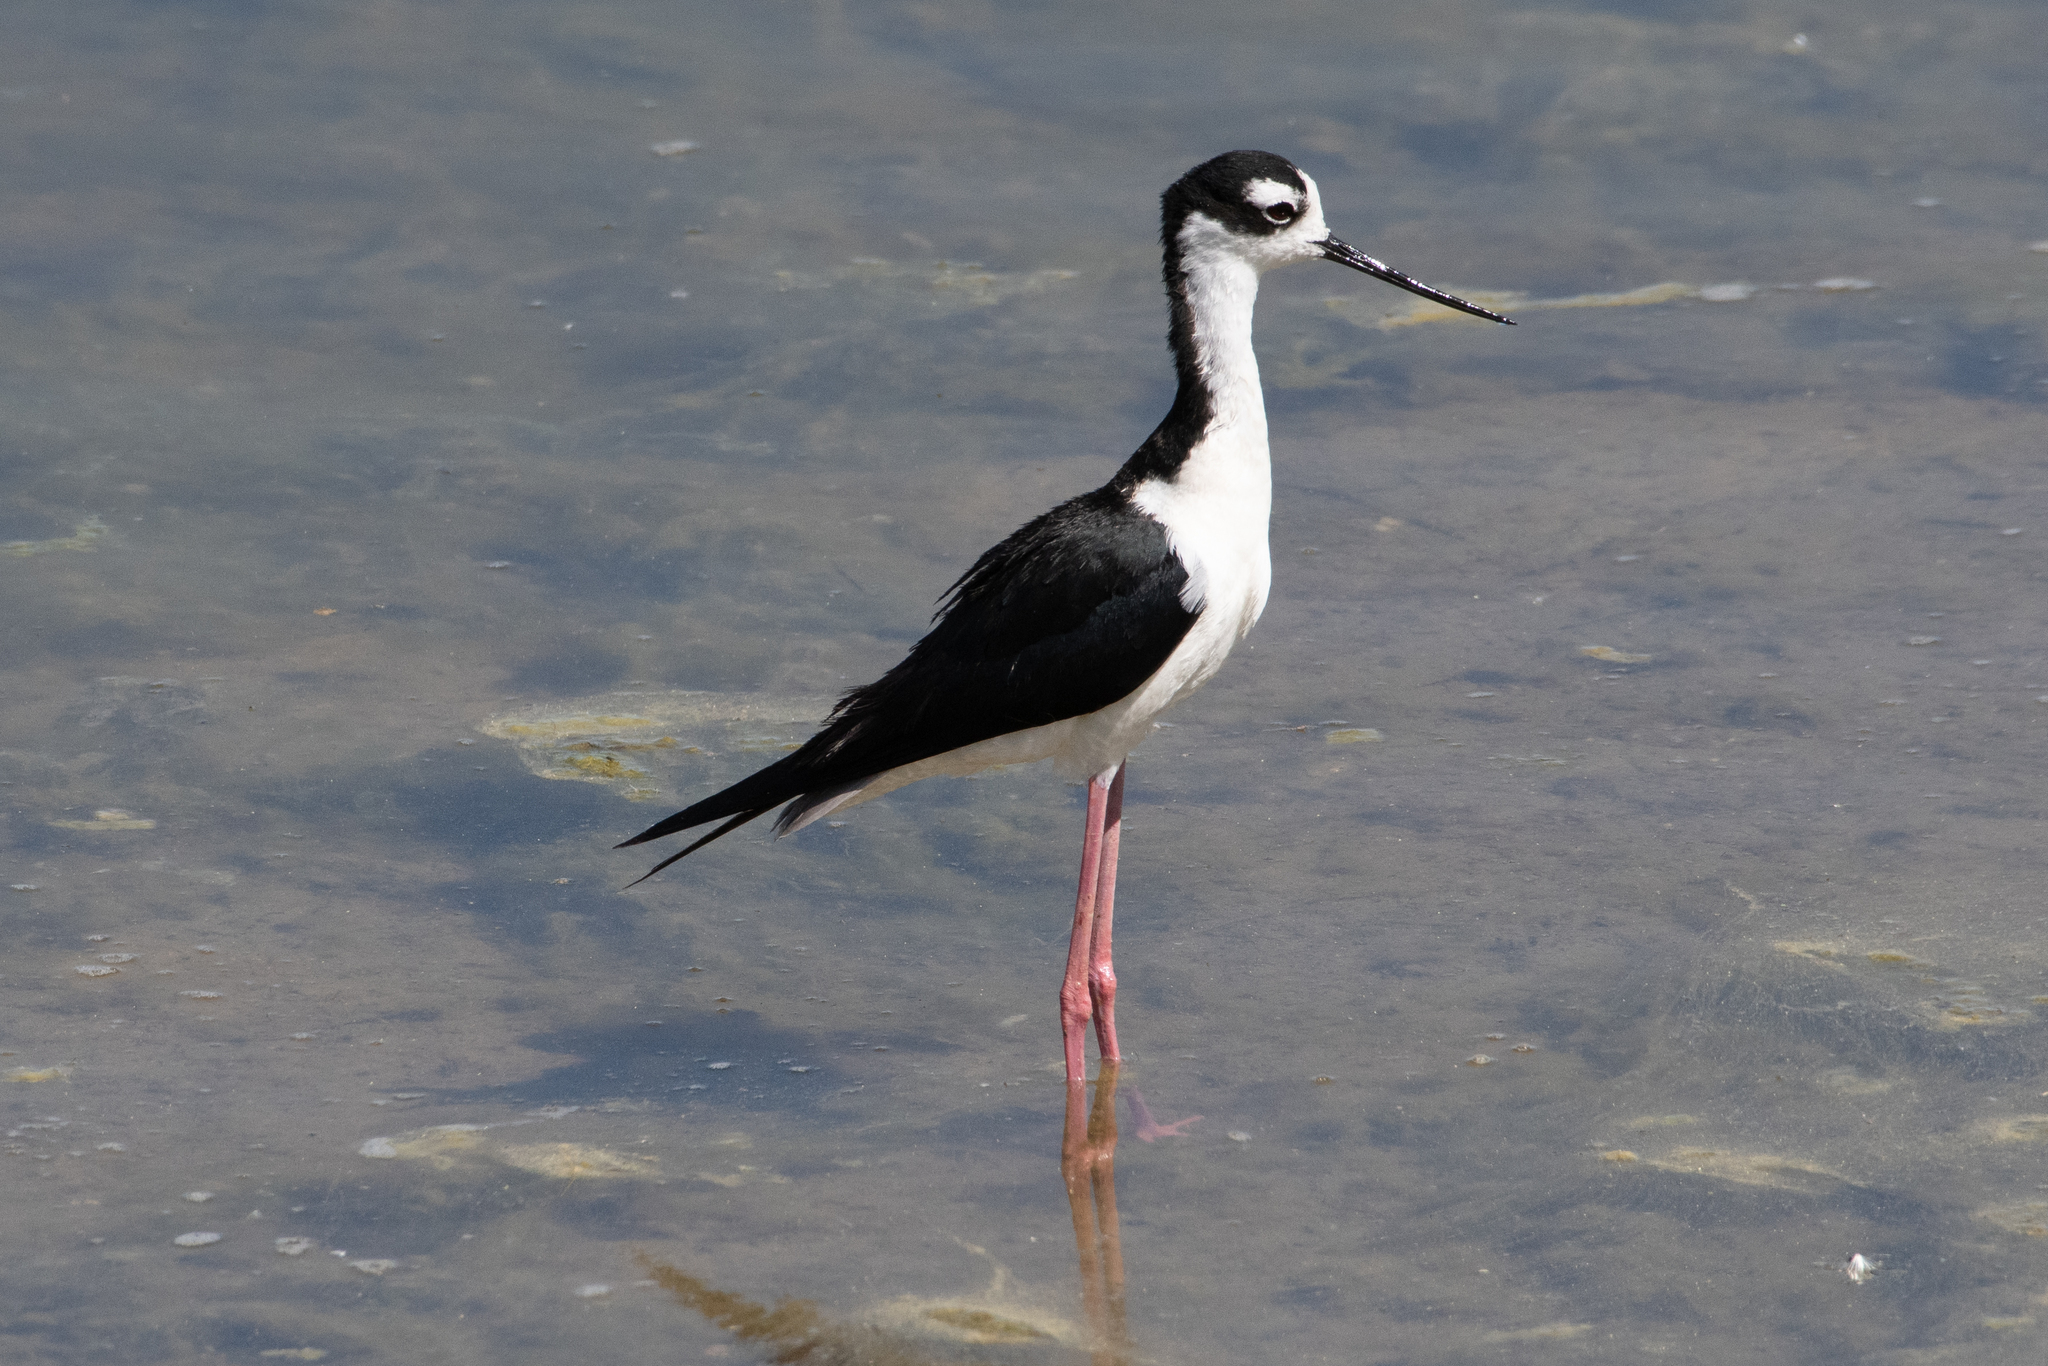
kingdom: Animalia
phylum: Chordata
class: Aves
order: Charadriiformes
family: Recurvirostridae
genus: Himantopus
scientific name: Himantopus mexicanus
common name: Black-necked stilt
